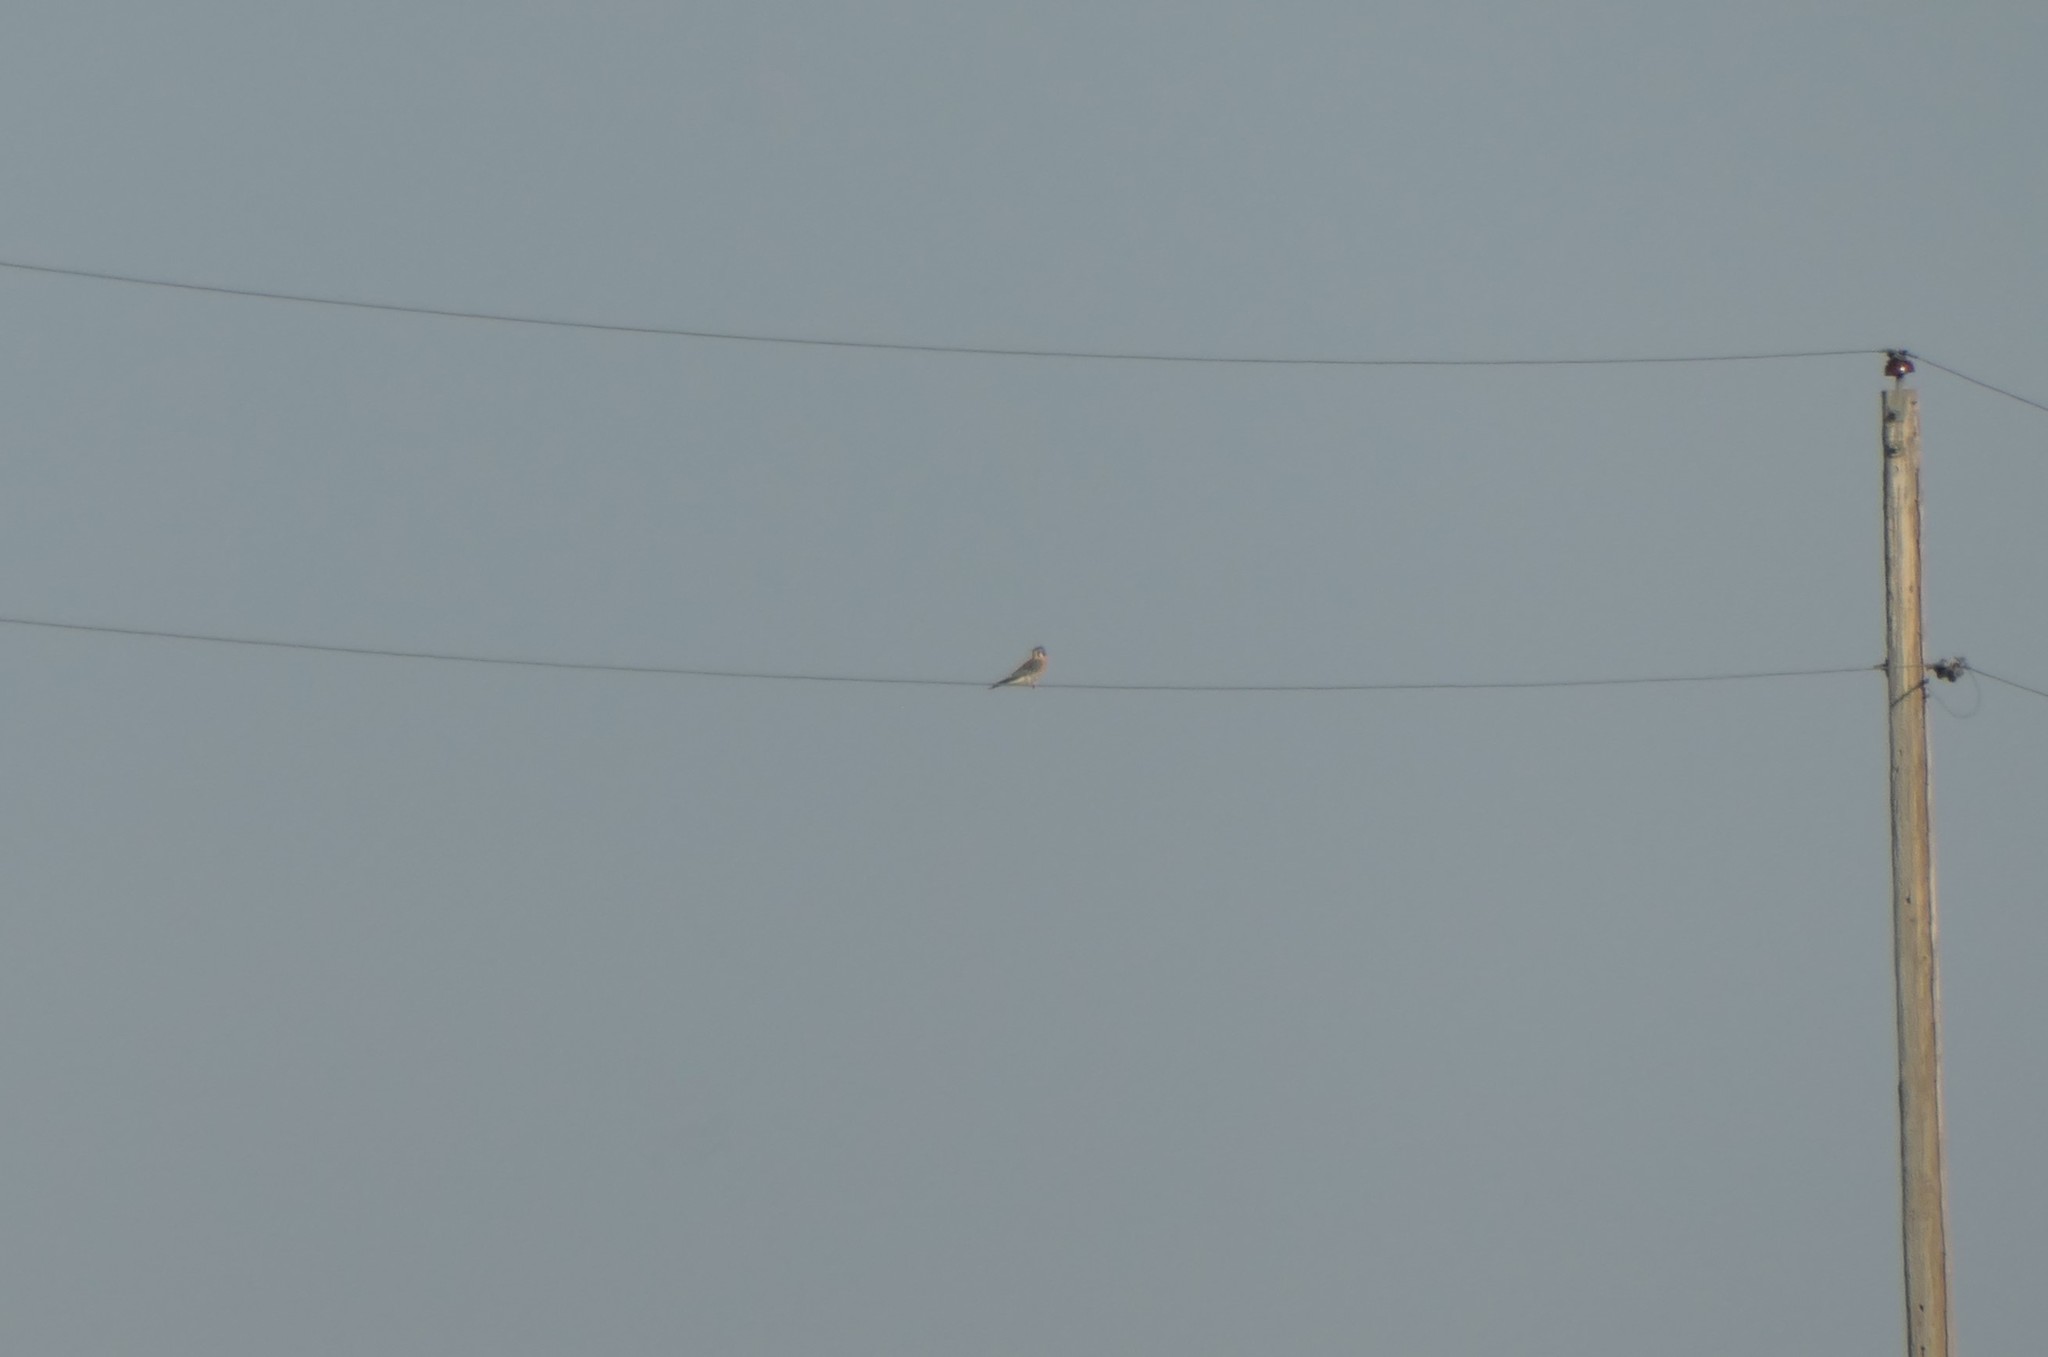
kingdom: Animalia
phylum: Chordata
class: Aves
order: Falconiformes
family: Falconidae
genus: Falco
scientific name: Falco sparverius
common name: American kestrel
